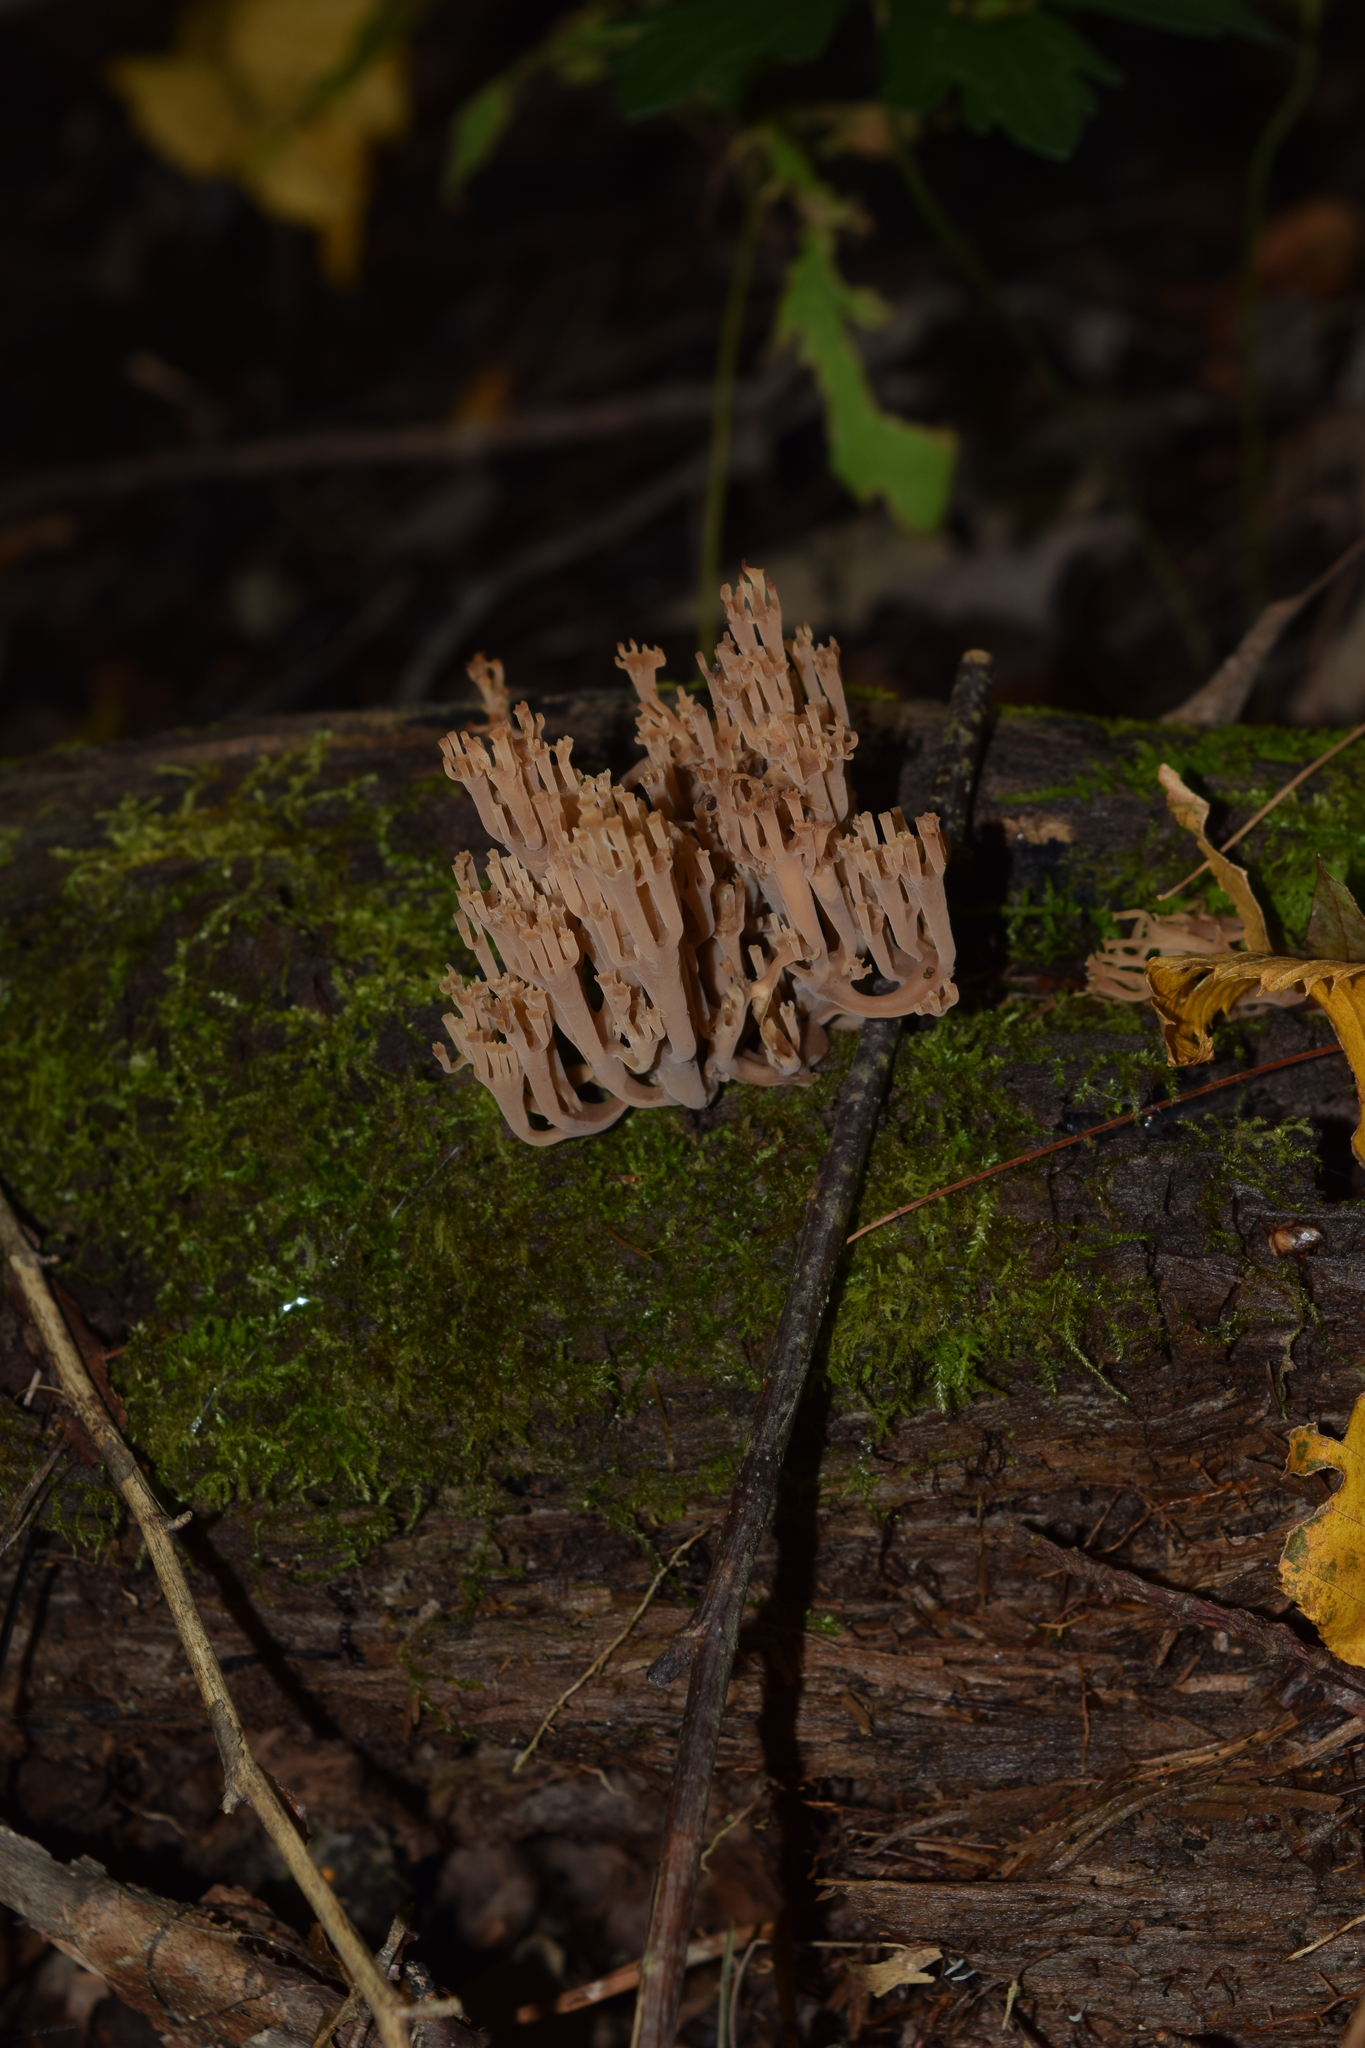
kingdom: Fungi
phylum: Basidiomycota
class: Agaricomycetes
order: Russulales
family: Auriscalpiaceae
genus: Artomyces
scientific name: Artomyces pyxidatus
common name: Crown-tipped coral fungus
